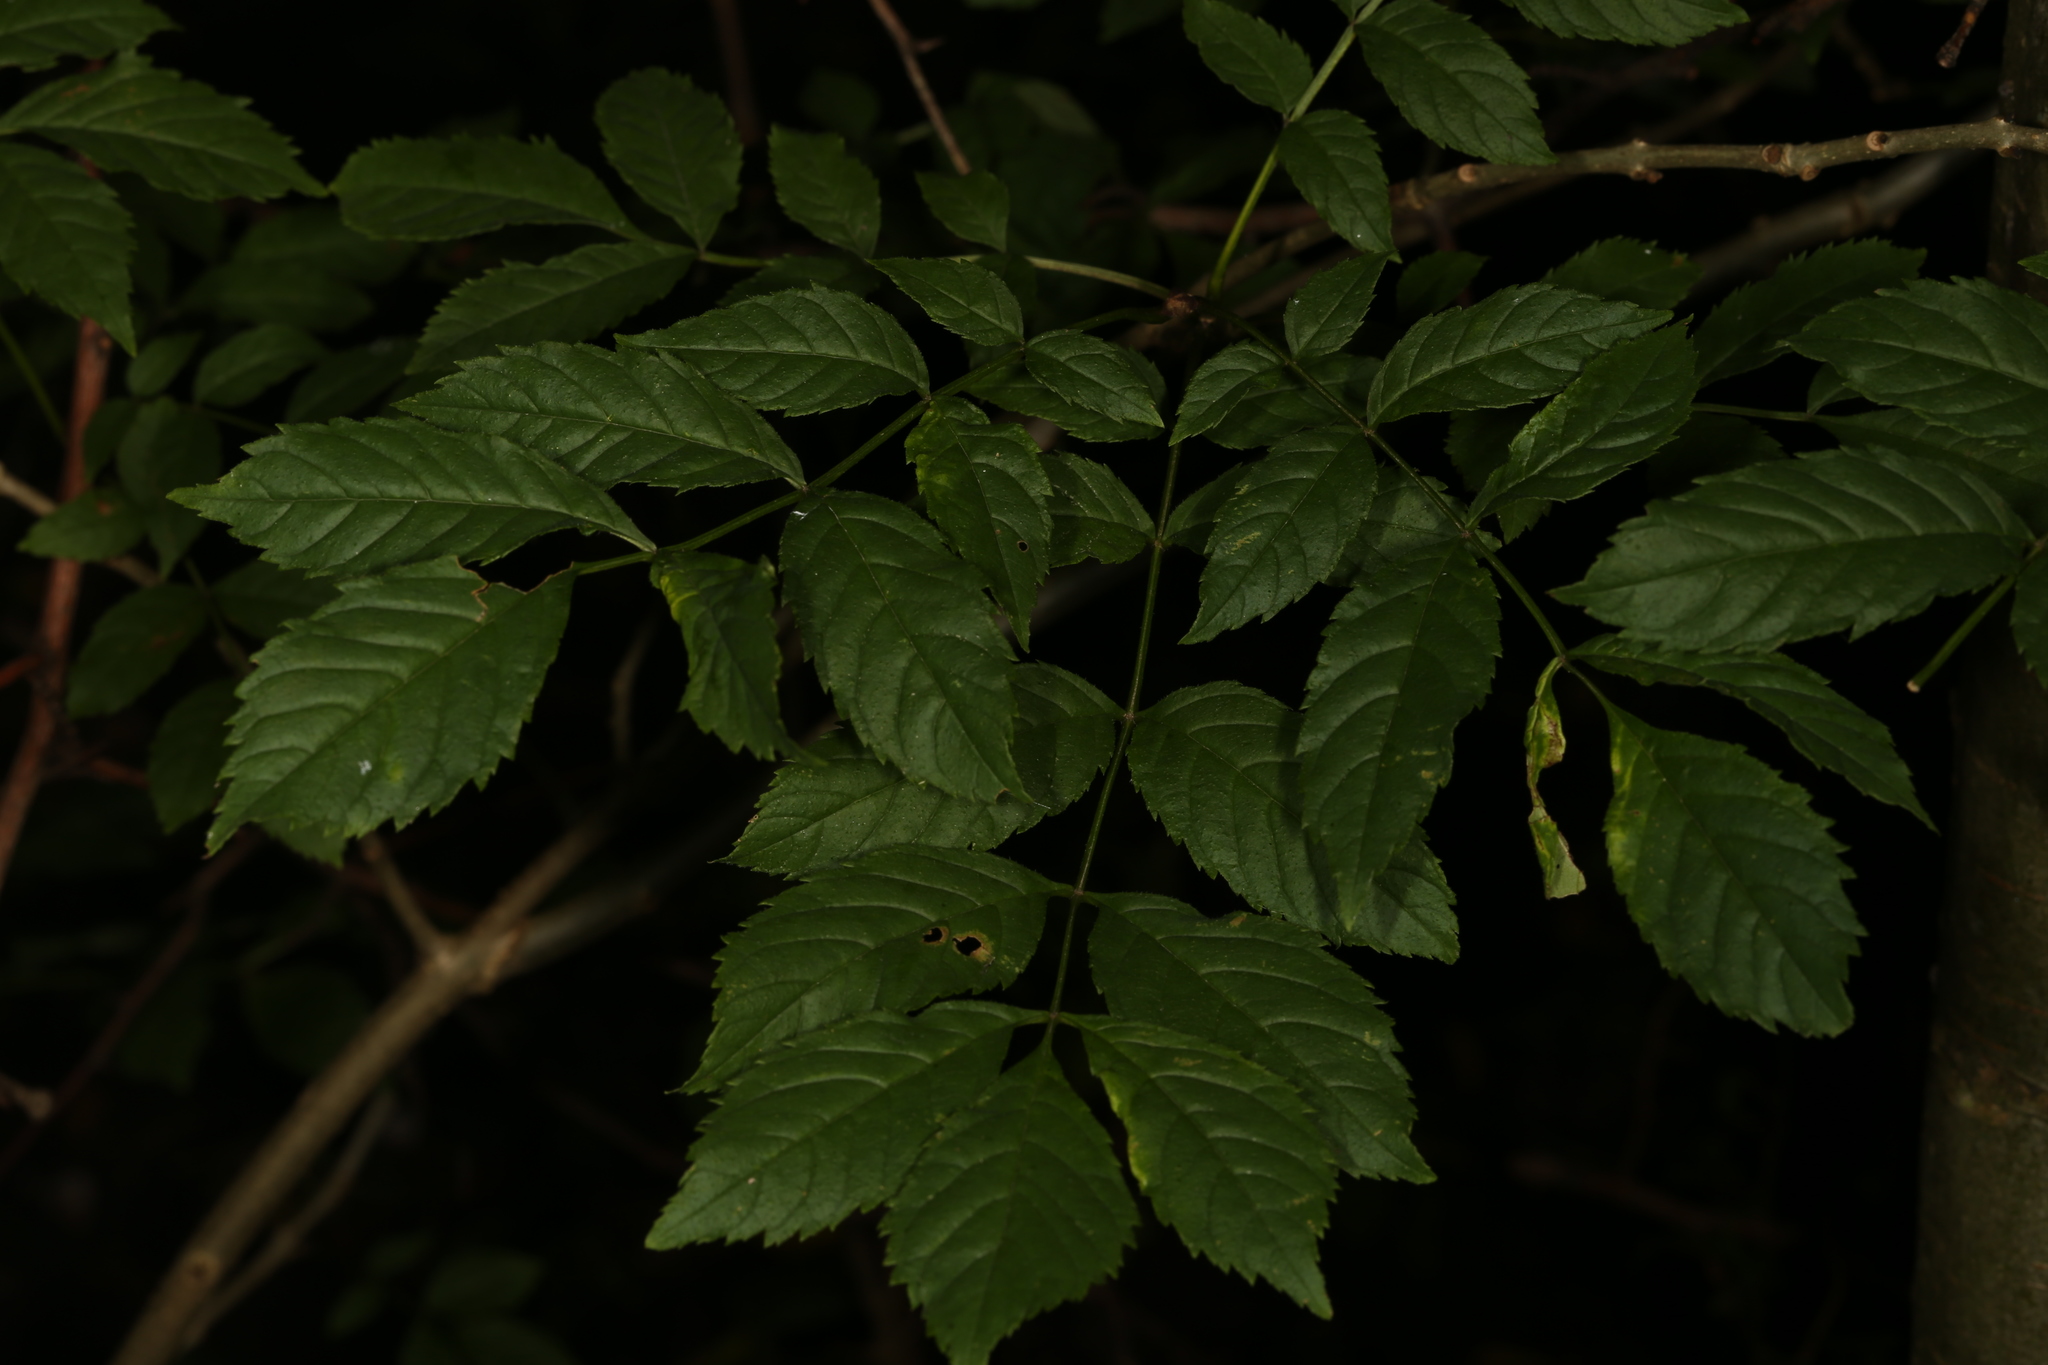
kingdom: Plantae
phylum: Tracheophyta
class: Magnoliopsida
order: Lamiales
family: Oleaceae
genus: Fraxinus
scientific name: Fraxinus excelsior
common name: European ash
